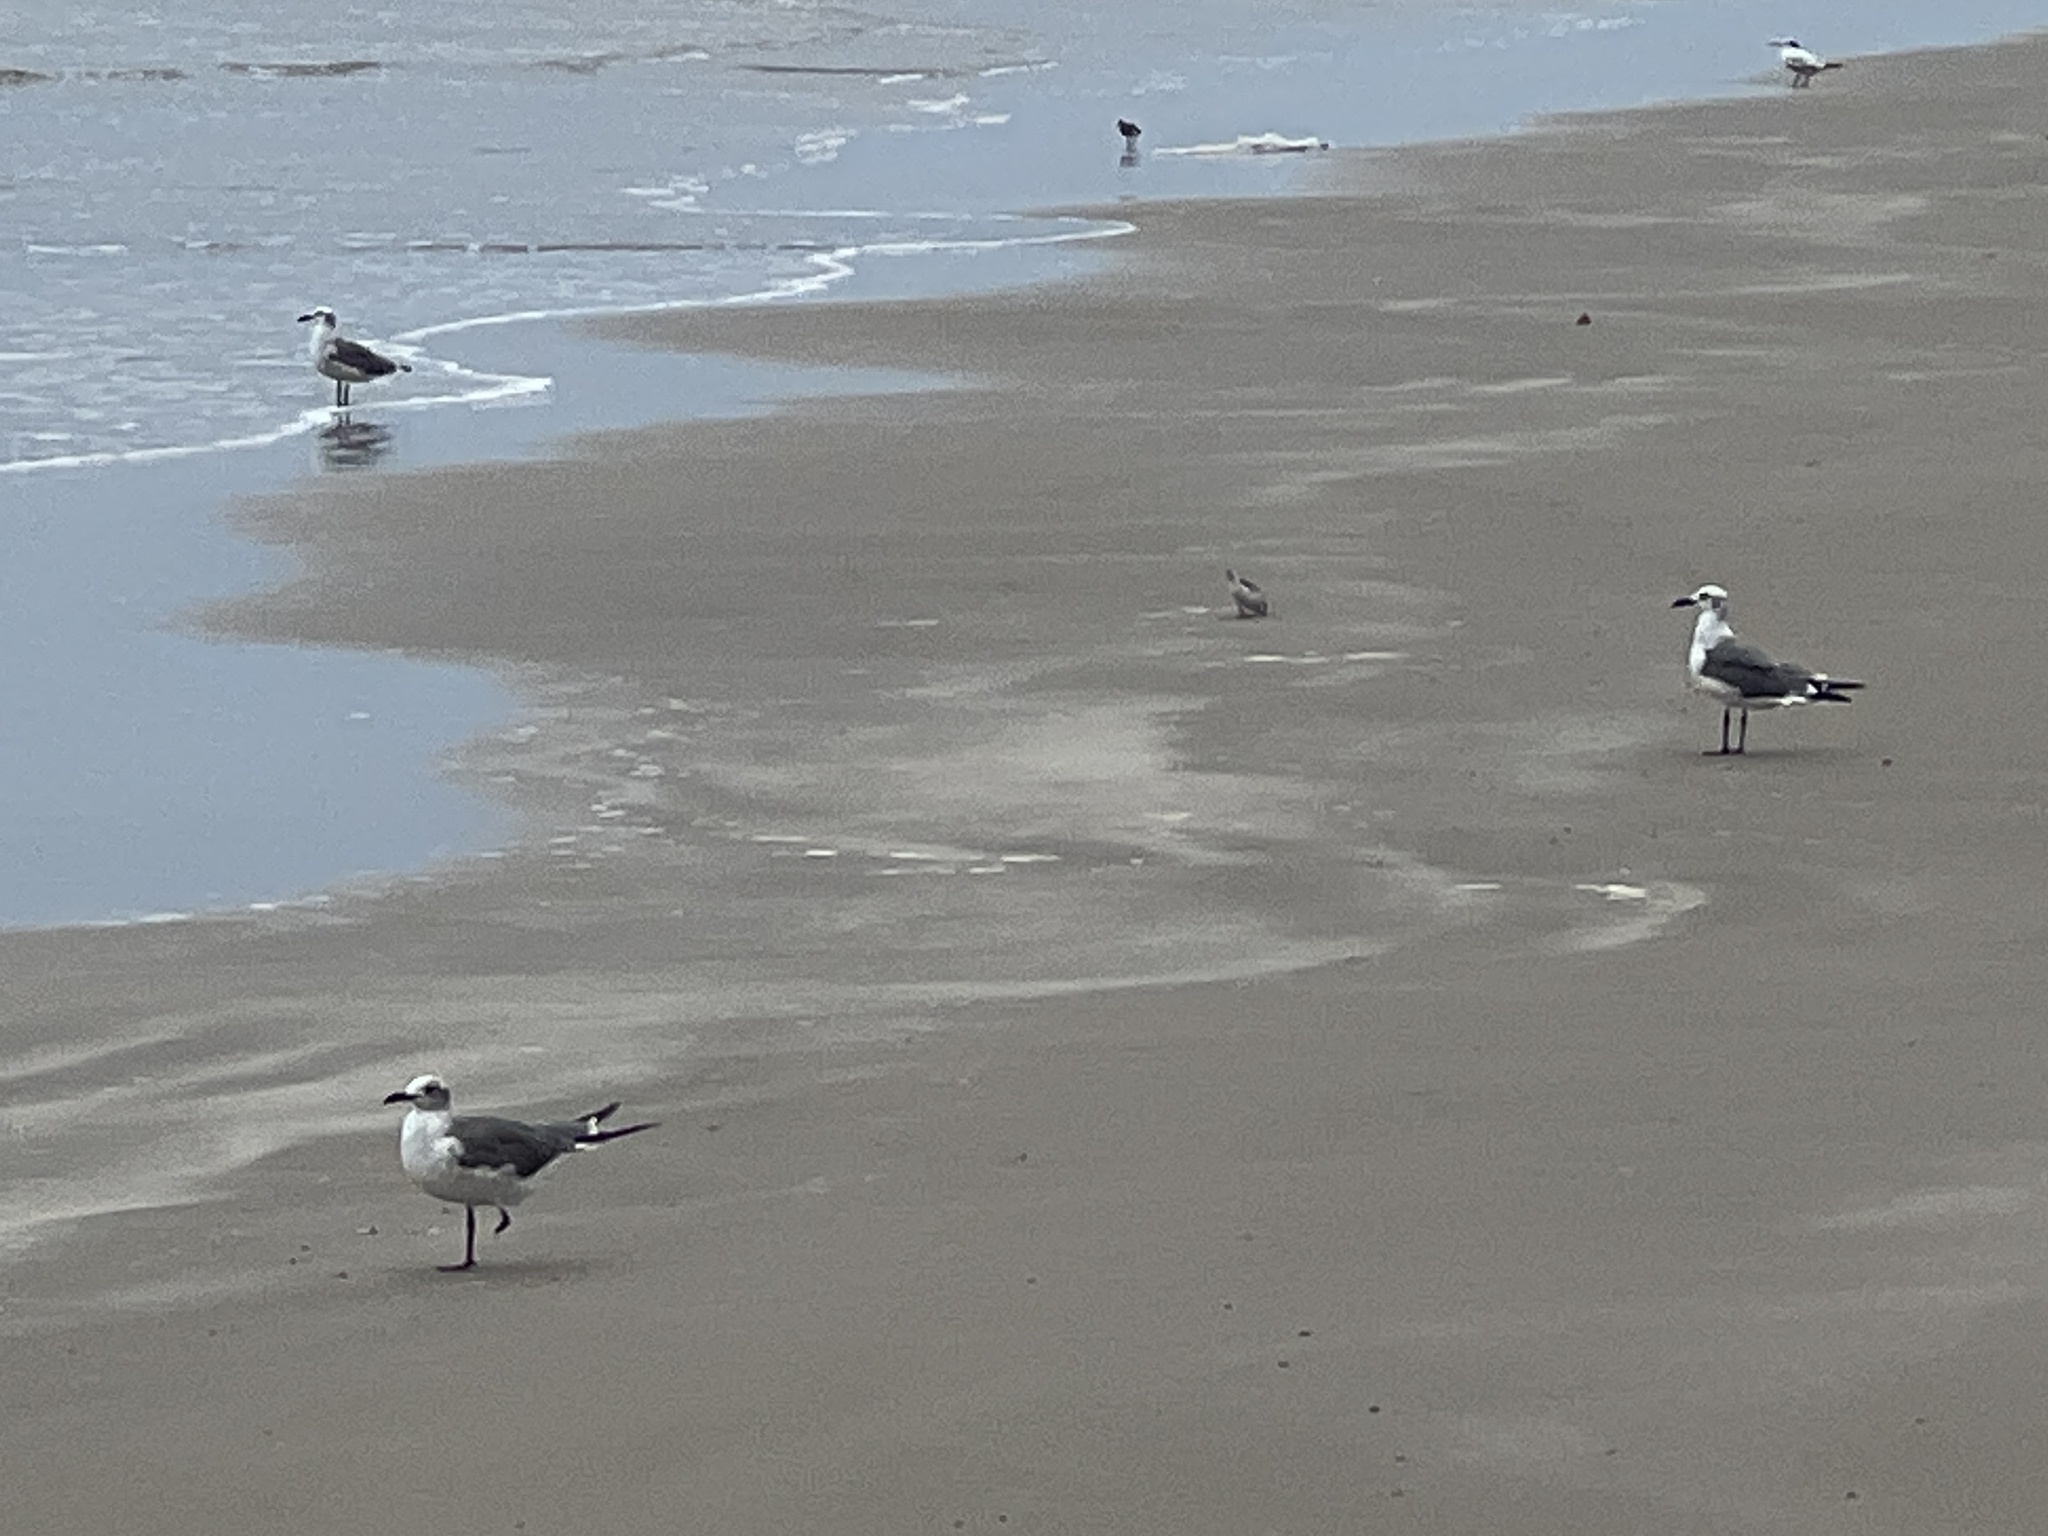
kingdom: Animalia
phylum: Chordata
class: Aves
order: Charadriiformes
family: Laridae
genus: Leucophaeus
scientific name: Leucophaeus atricilla
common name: Laughing gull
